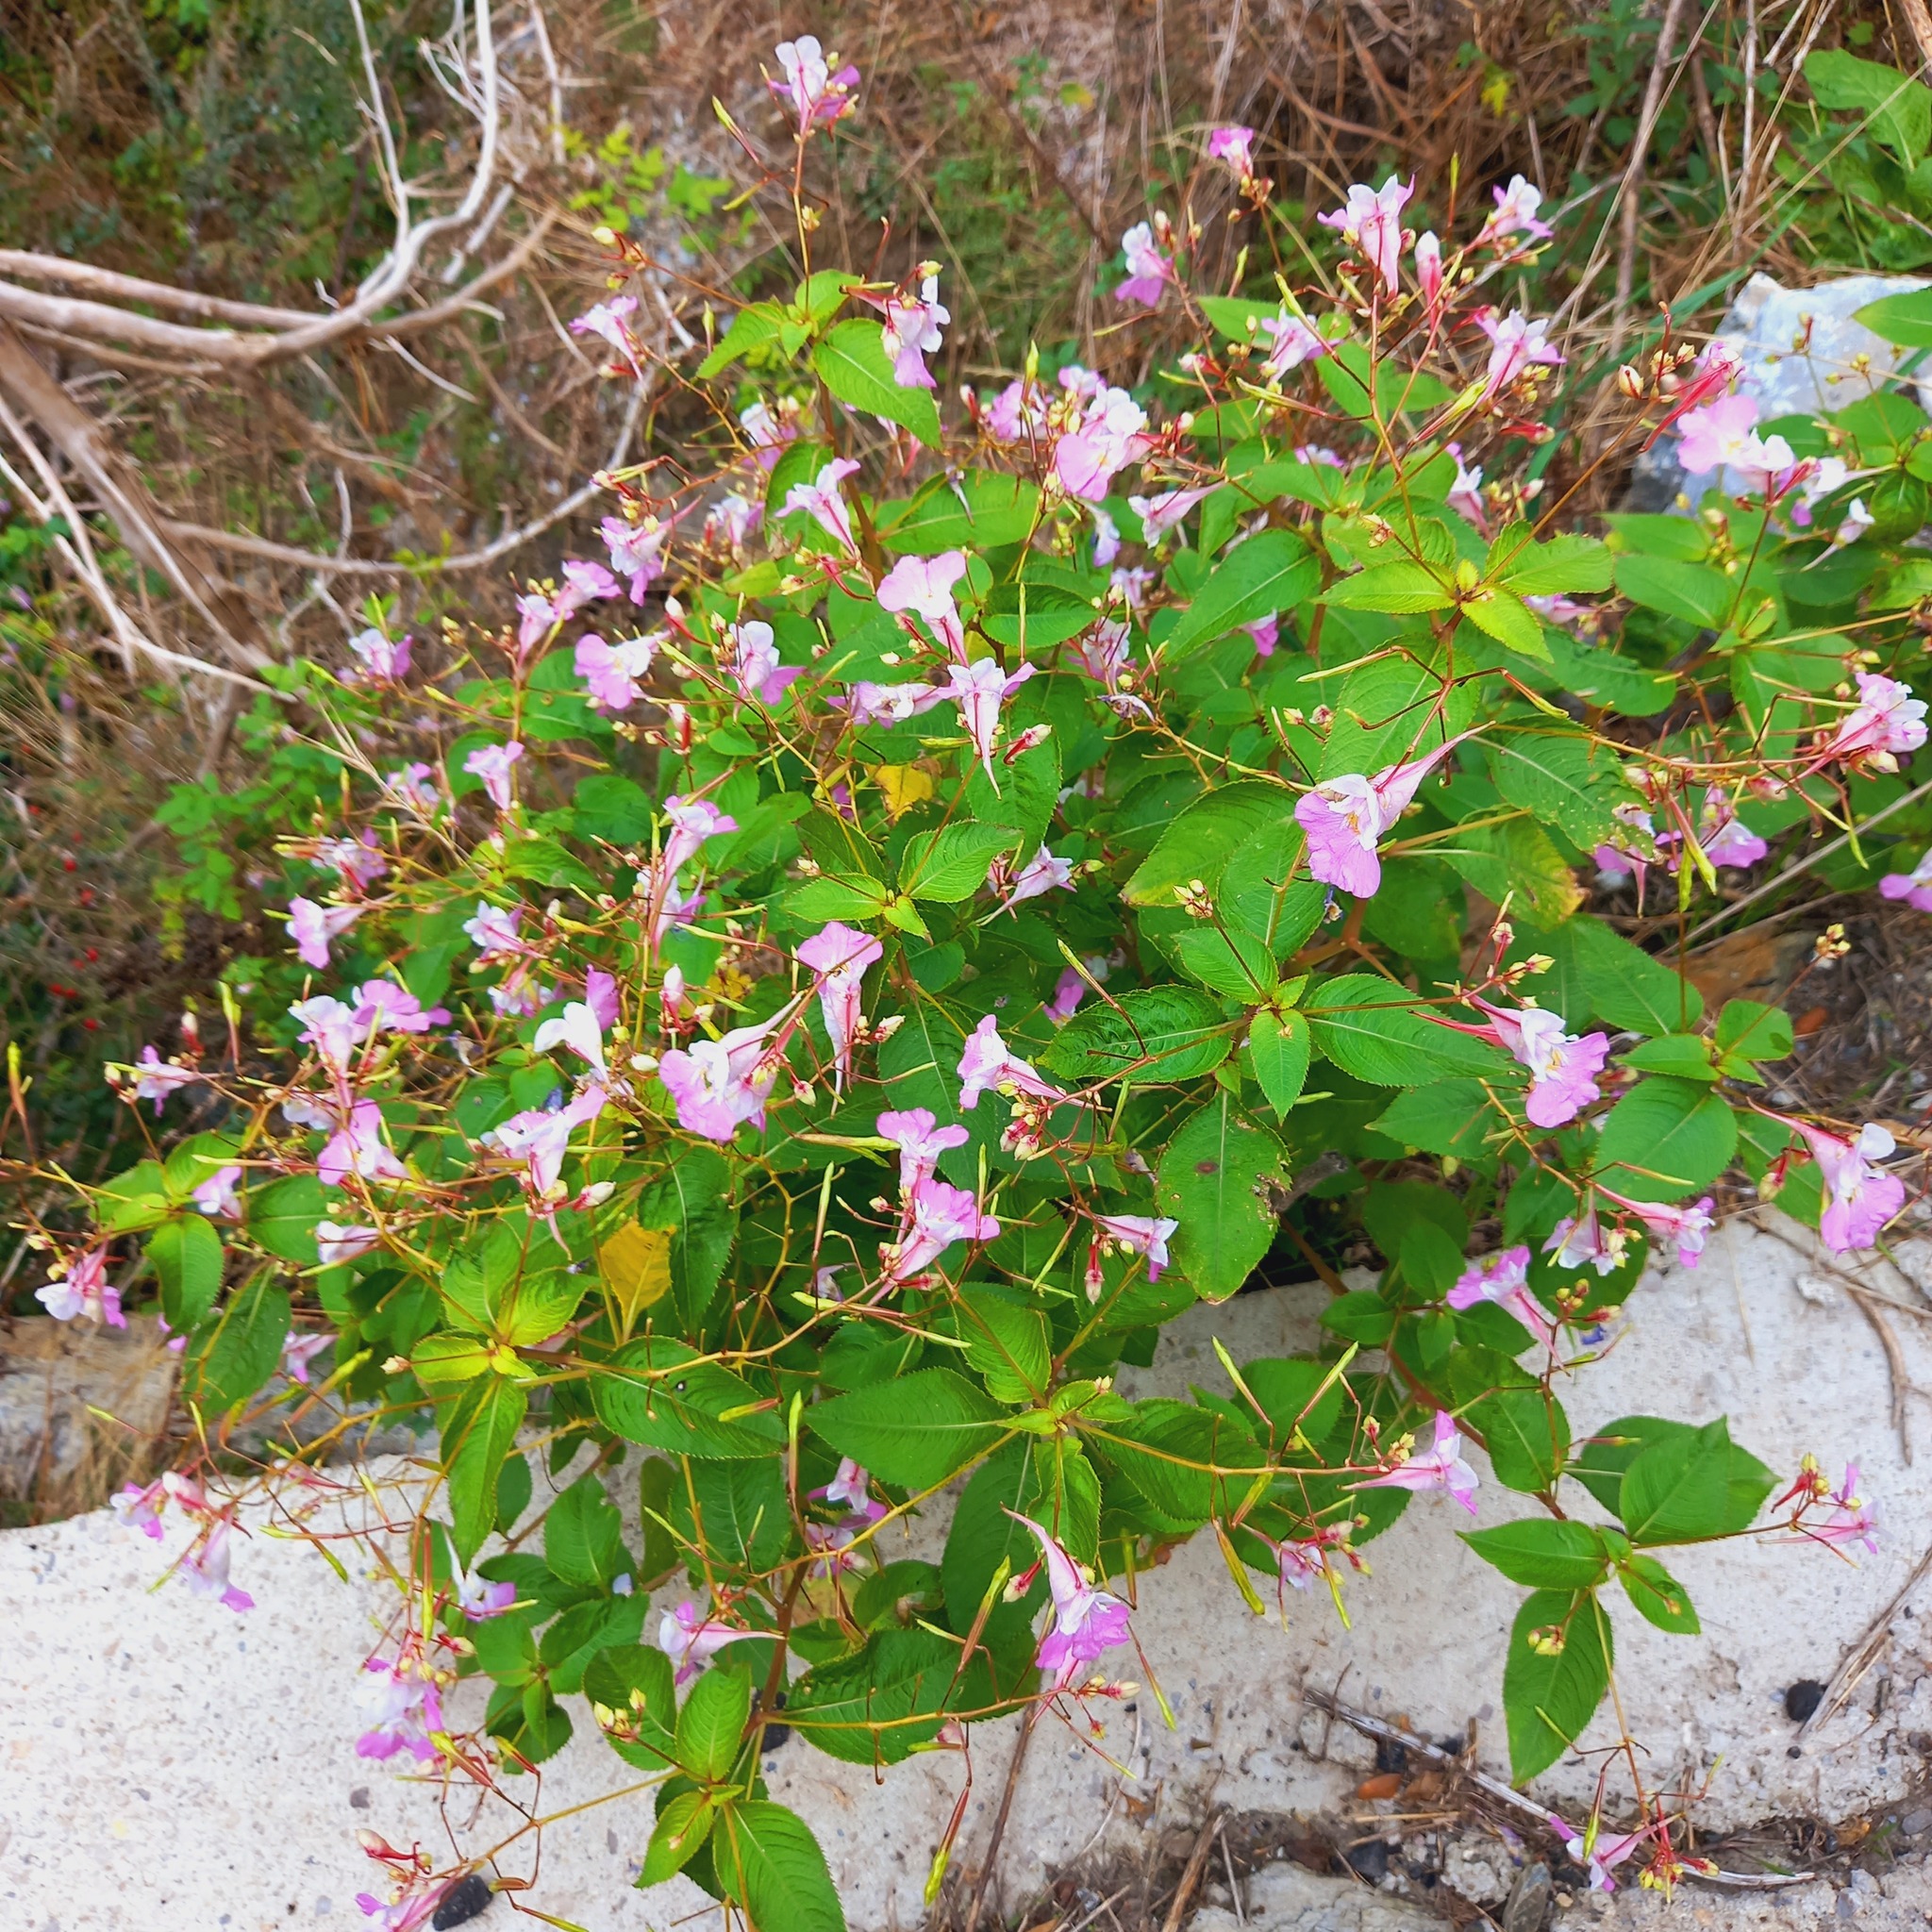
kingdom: Plantae
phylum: Tracheophyta
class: Magnoliopsida
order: Ericales
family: Balsaminaceae
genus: Impatiens
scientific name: Impatiens glandulifera
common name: Himalayan balsam
